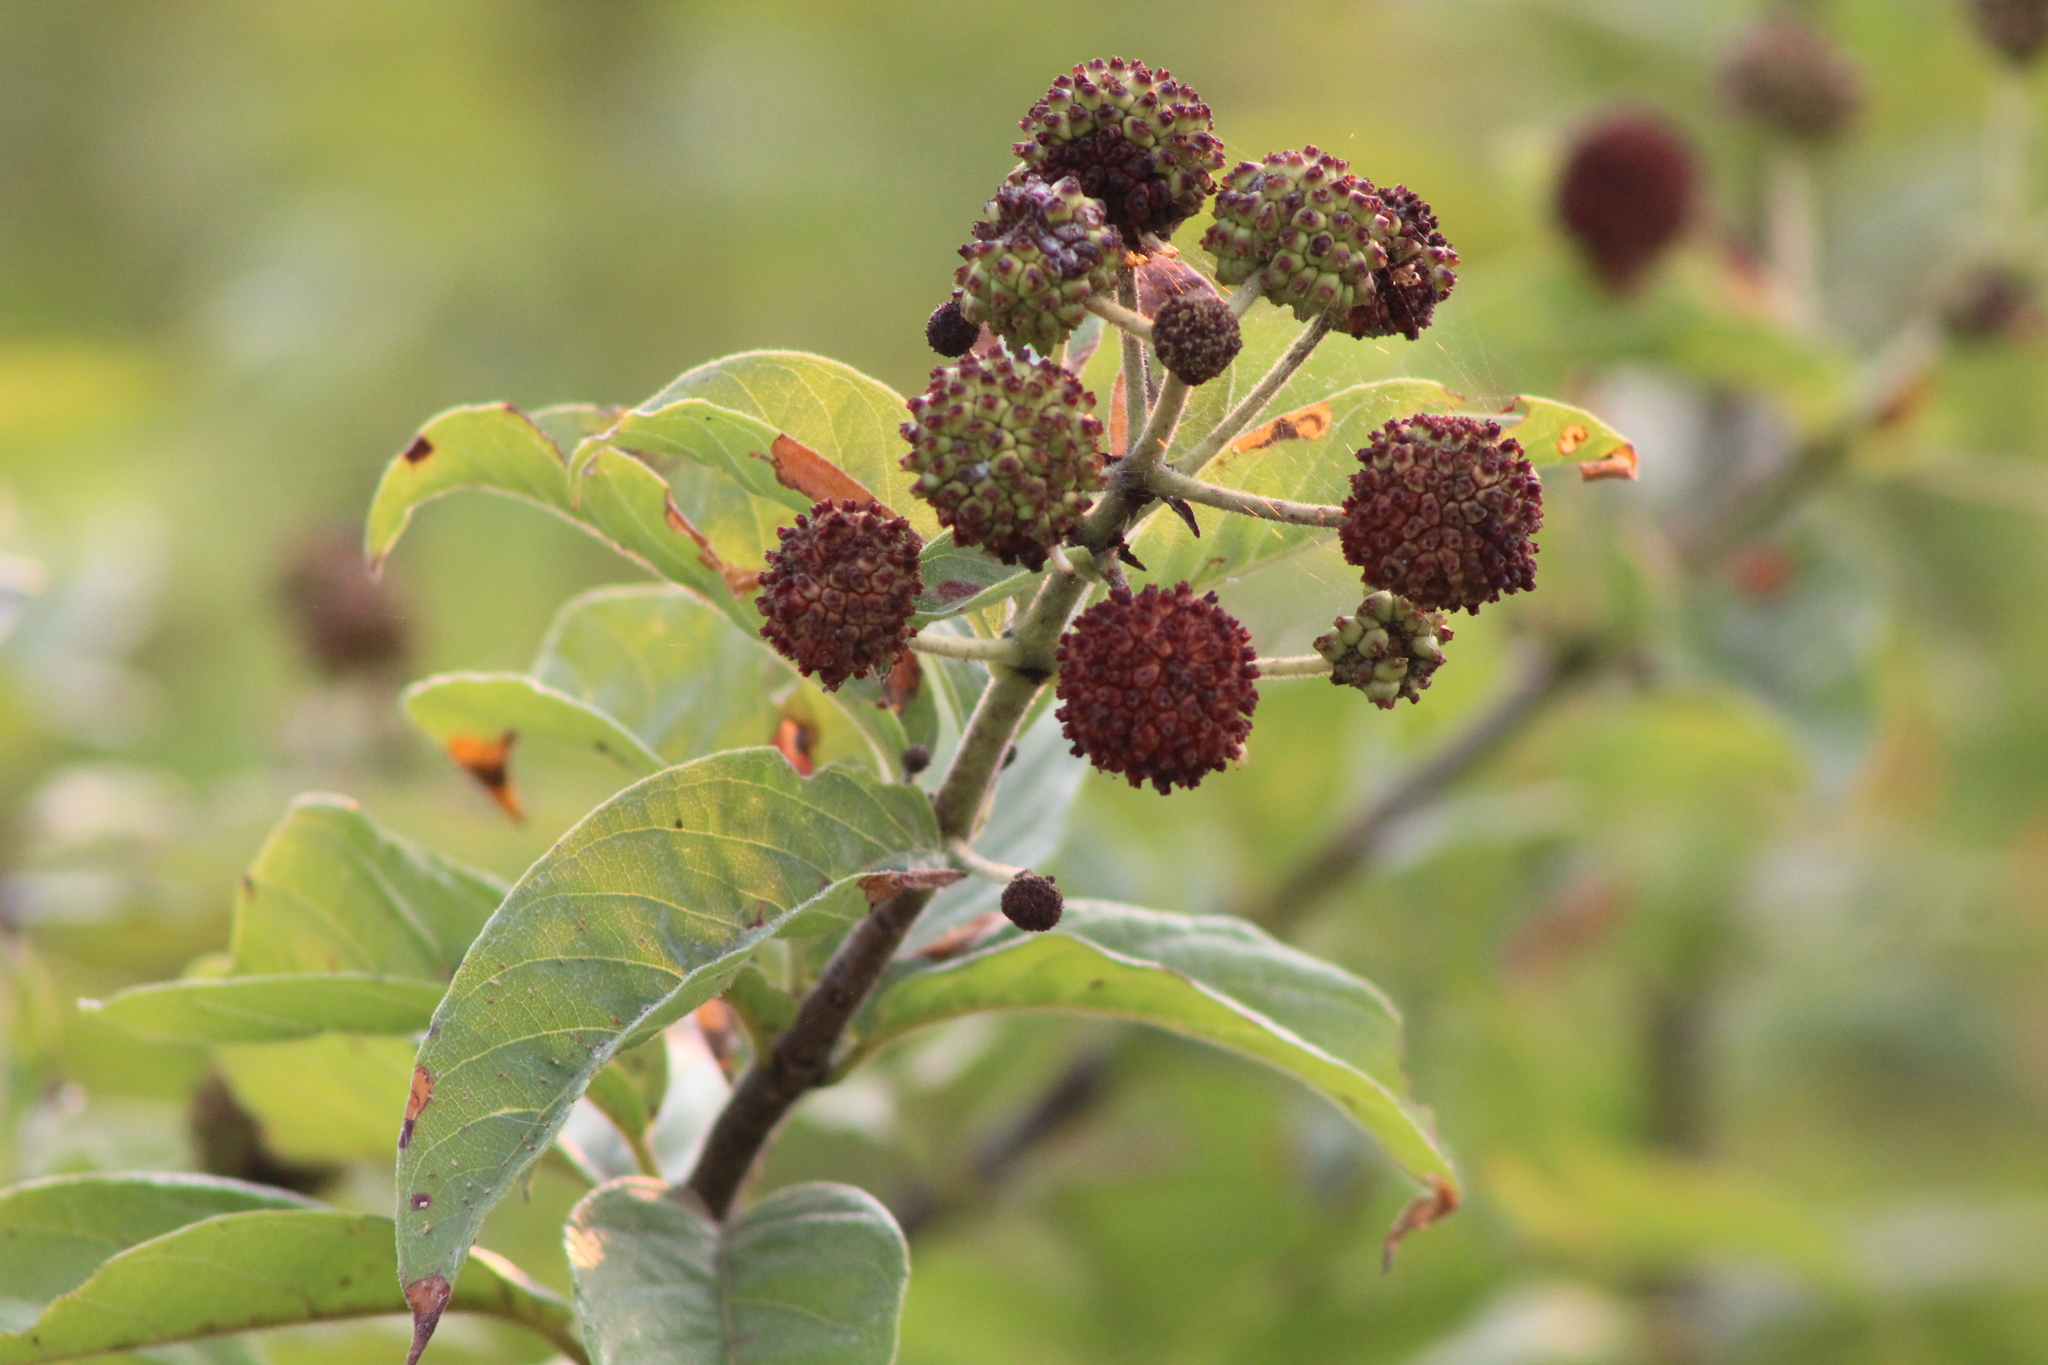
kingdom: Plantae
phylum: Tracheophyta
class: Magnoliopsida
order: Gentianales
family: Rubiaceae
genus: Cephalanthus
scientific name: Cephalanthus occidentalis
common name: Button-willow
